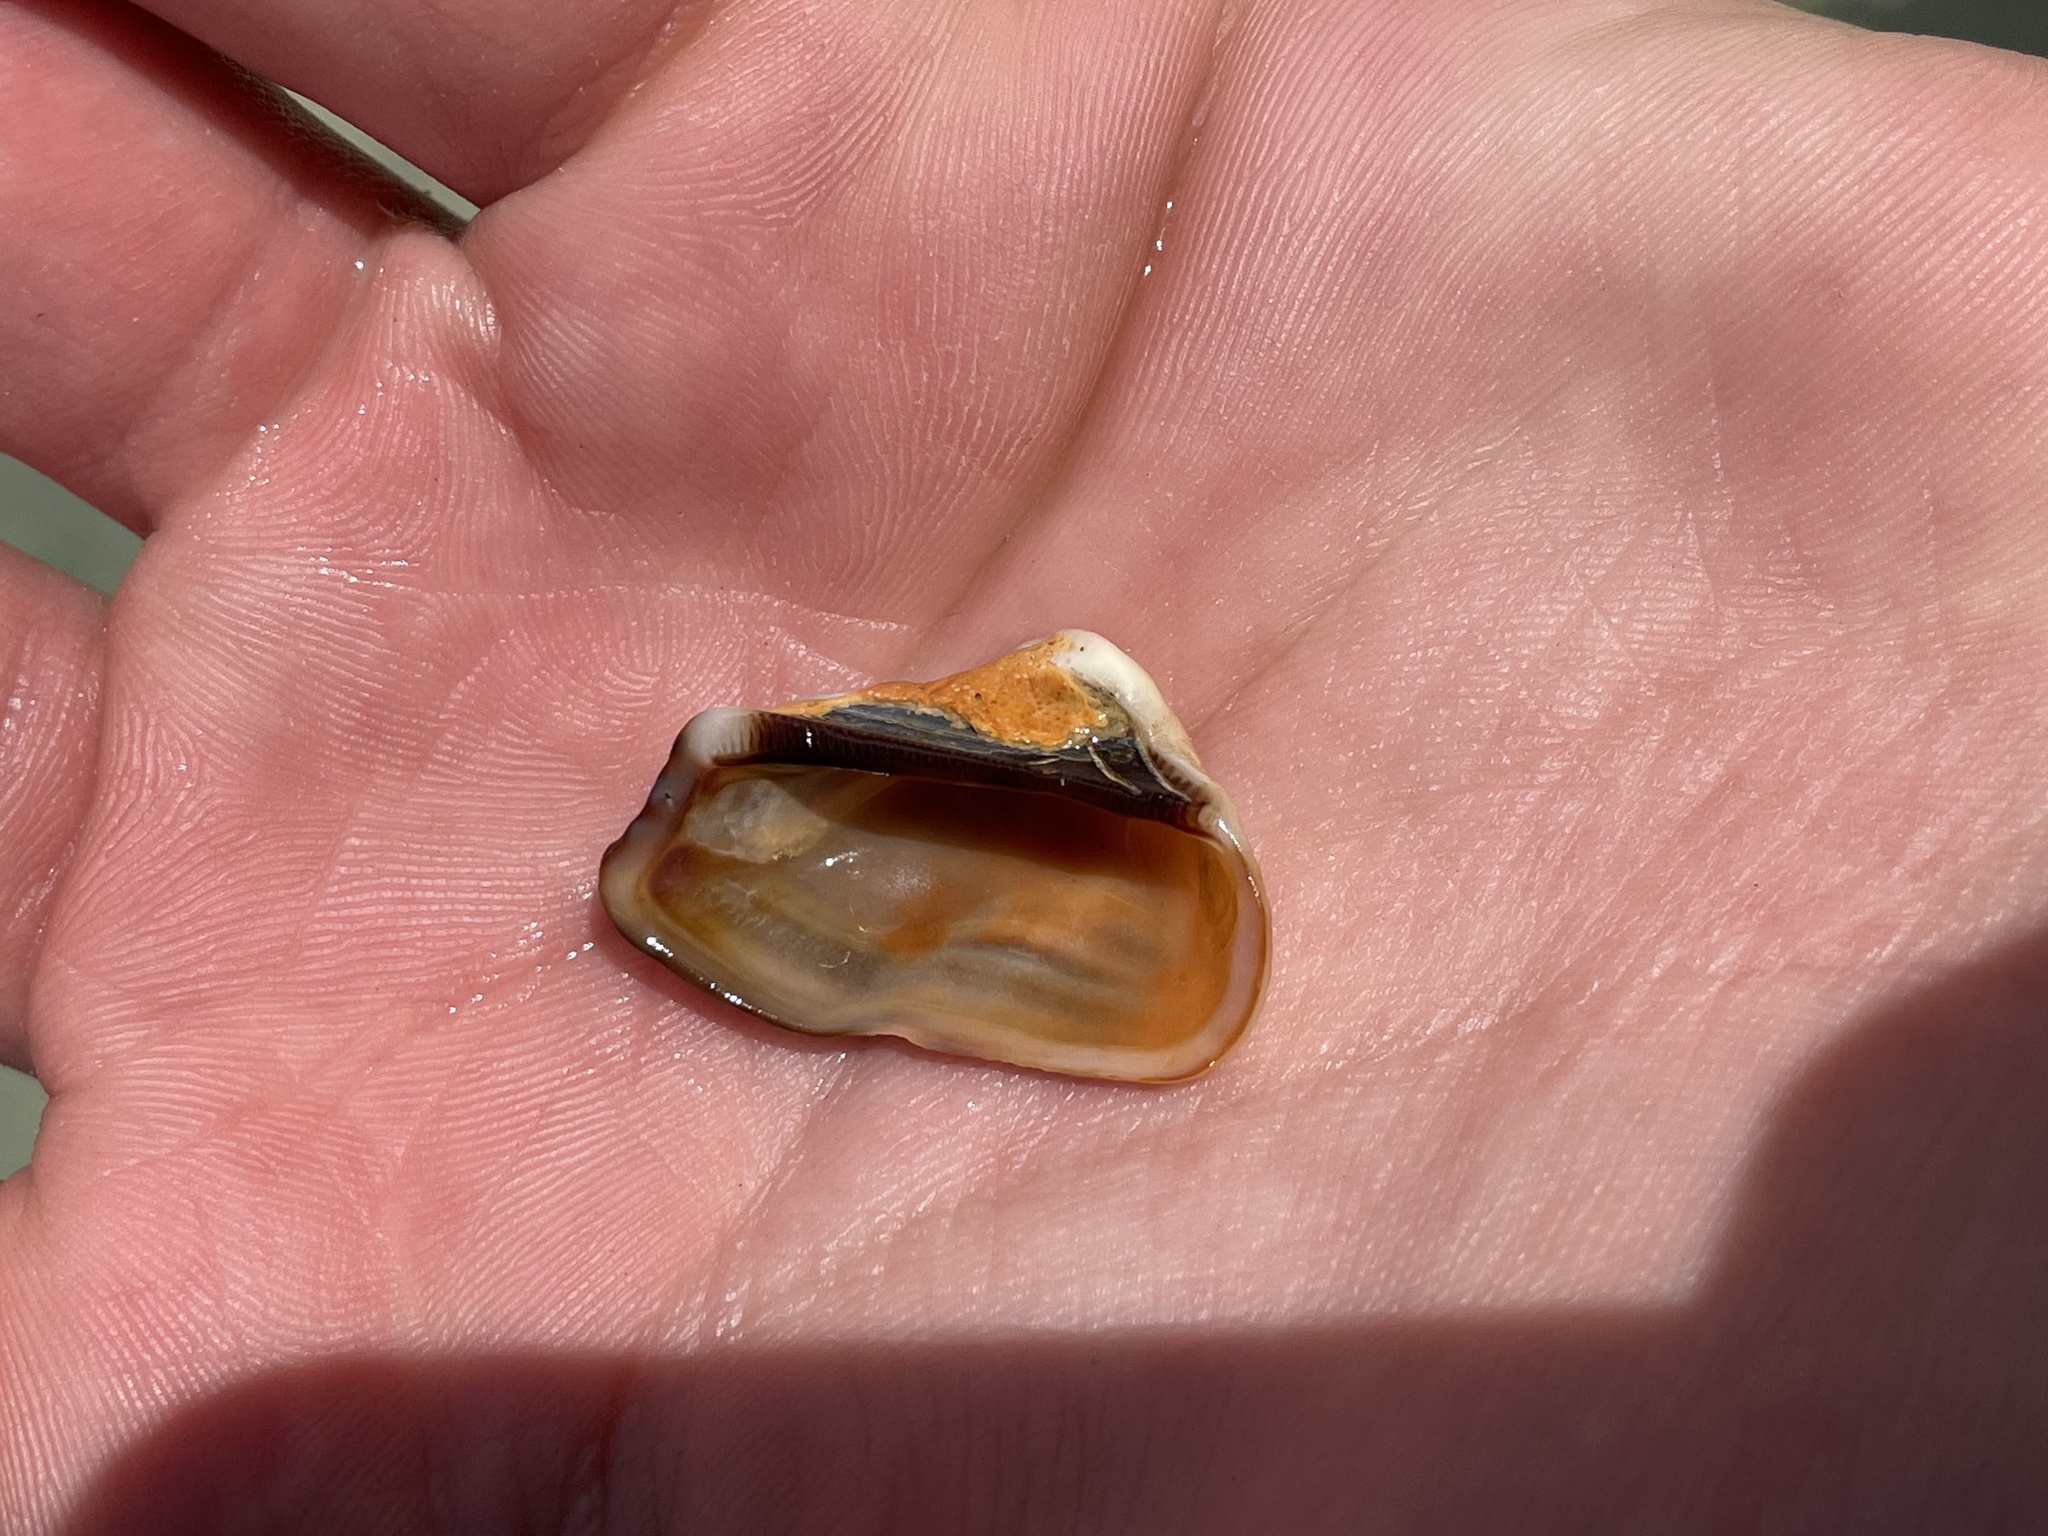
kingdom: Animalia
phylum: Mollusca
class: Bivalvia
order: Arcida
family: Arcidae
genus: Lamarcka
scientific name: Lamarcka imbricata
